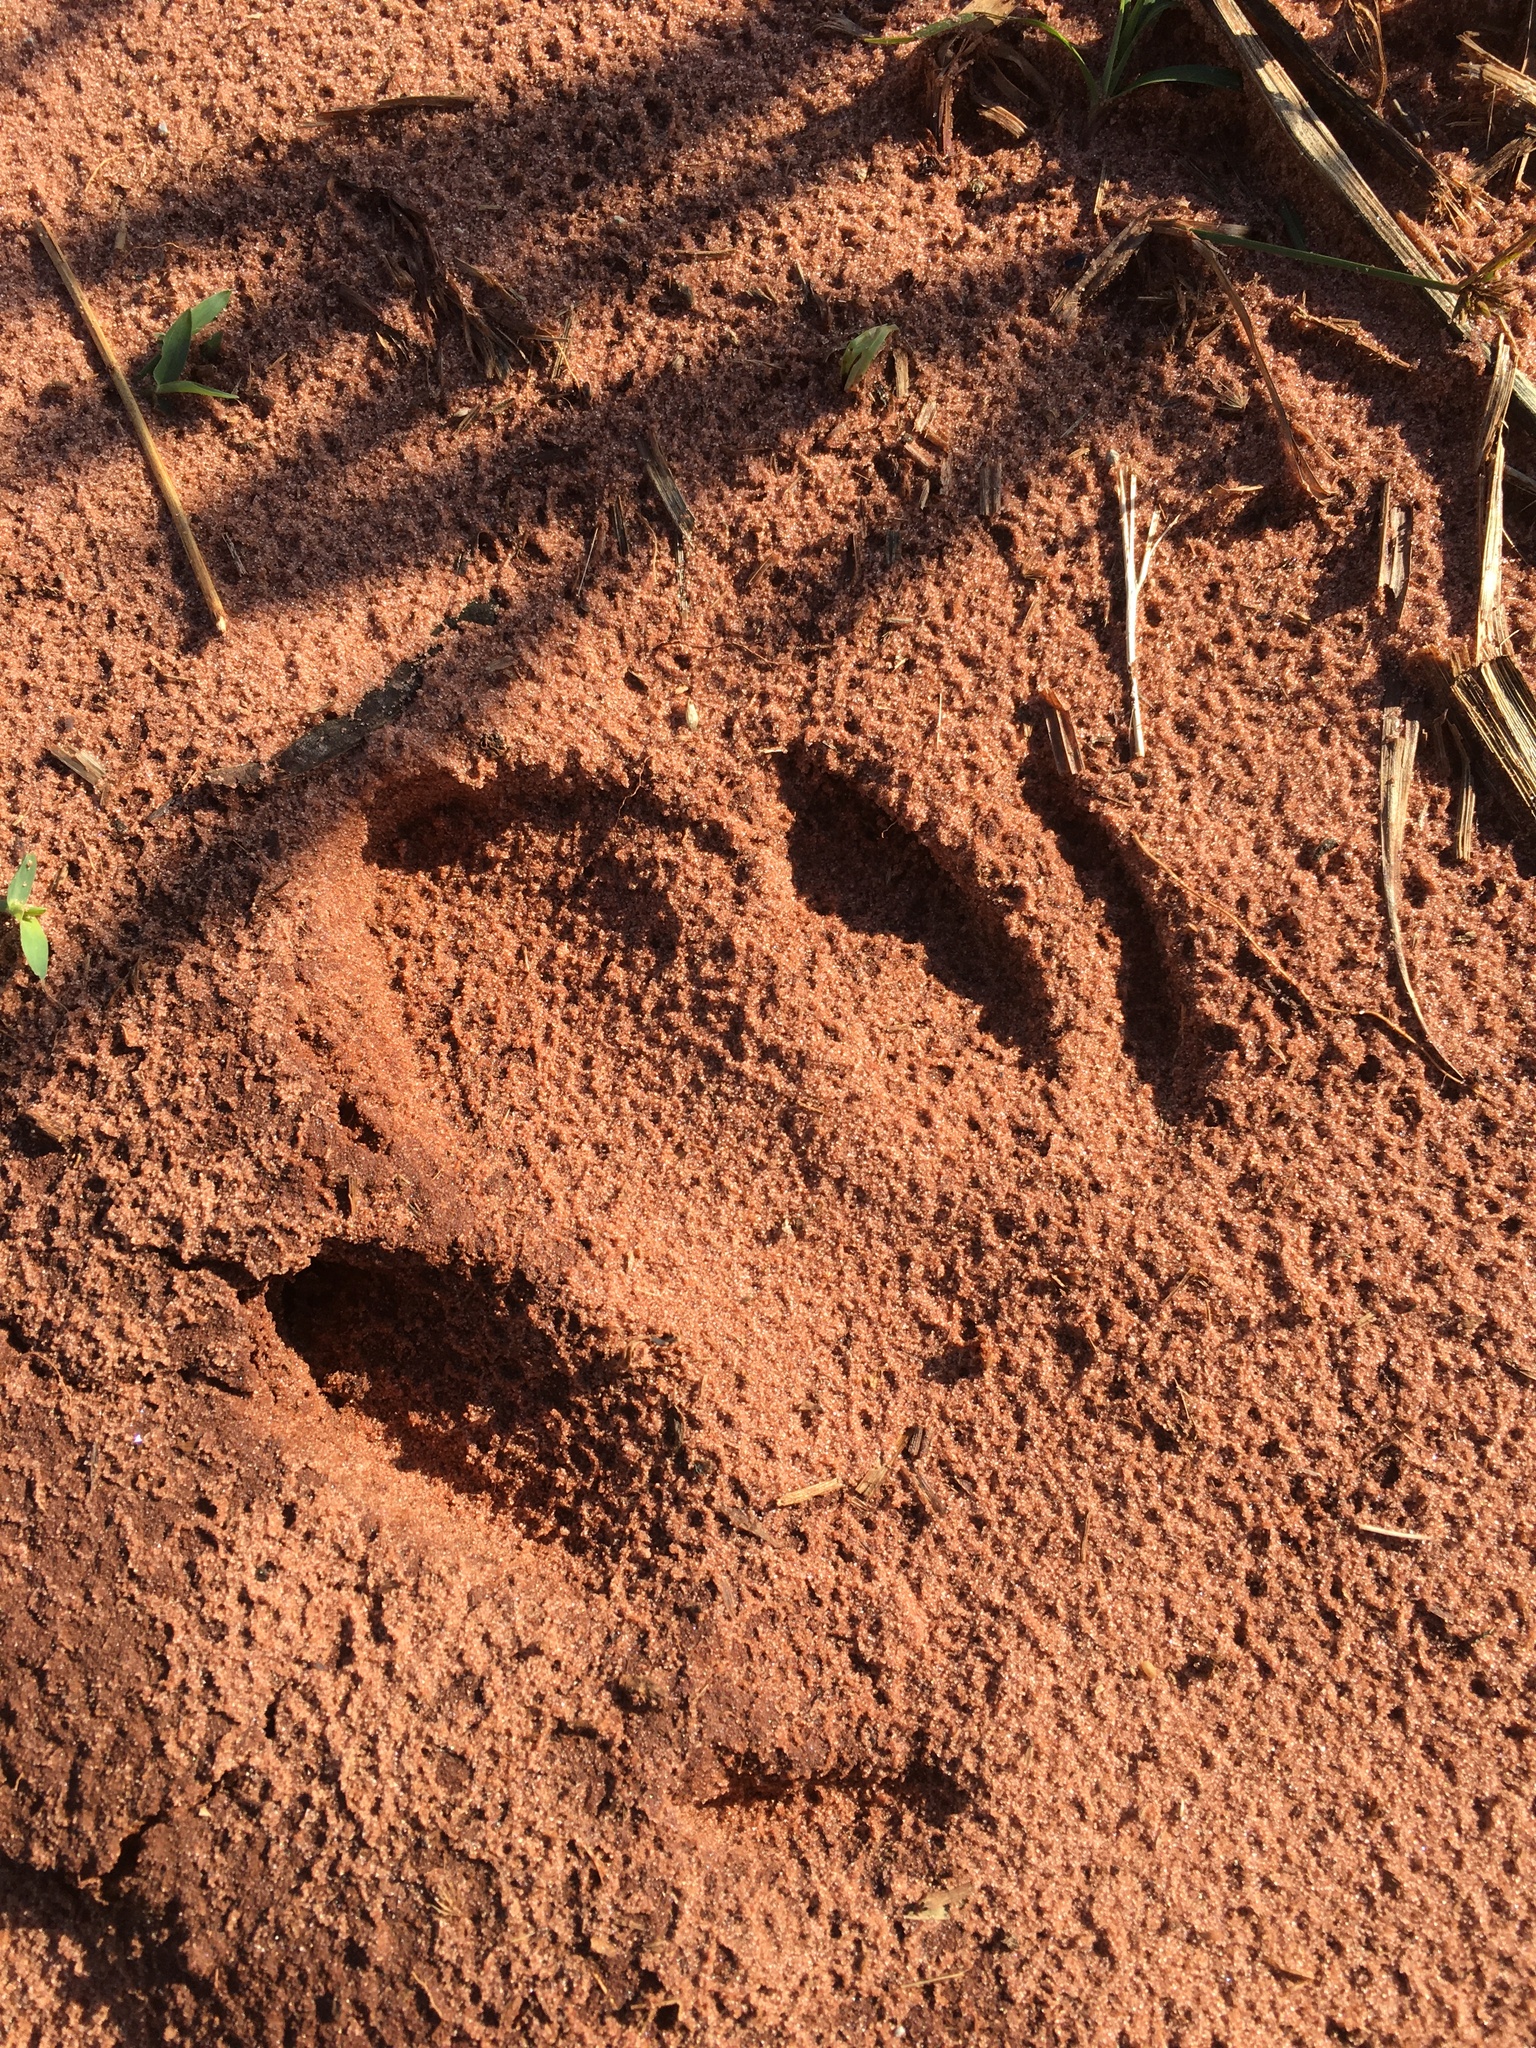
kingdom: Animalia
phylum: Chordata
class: Mammalia
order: Perissodactyla
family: Tapiridae
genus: Tapirus
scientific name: Tapirus terrestris
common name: Brazilian tapir
